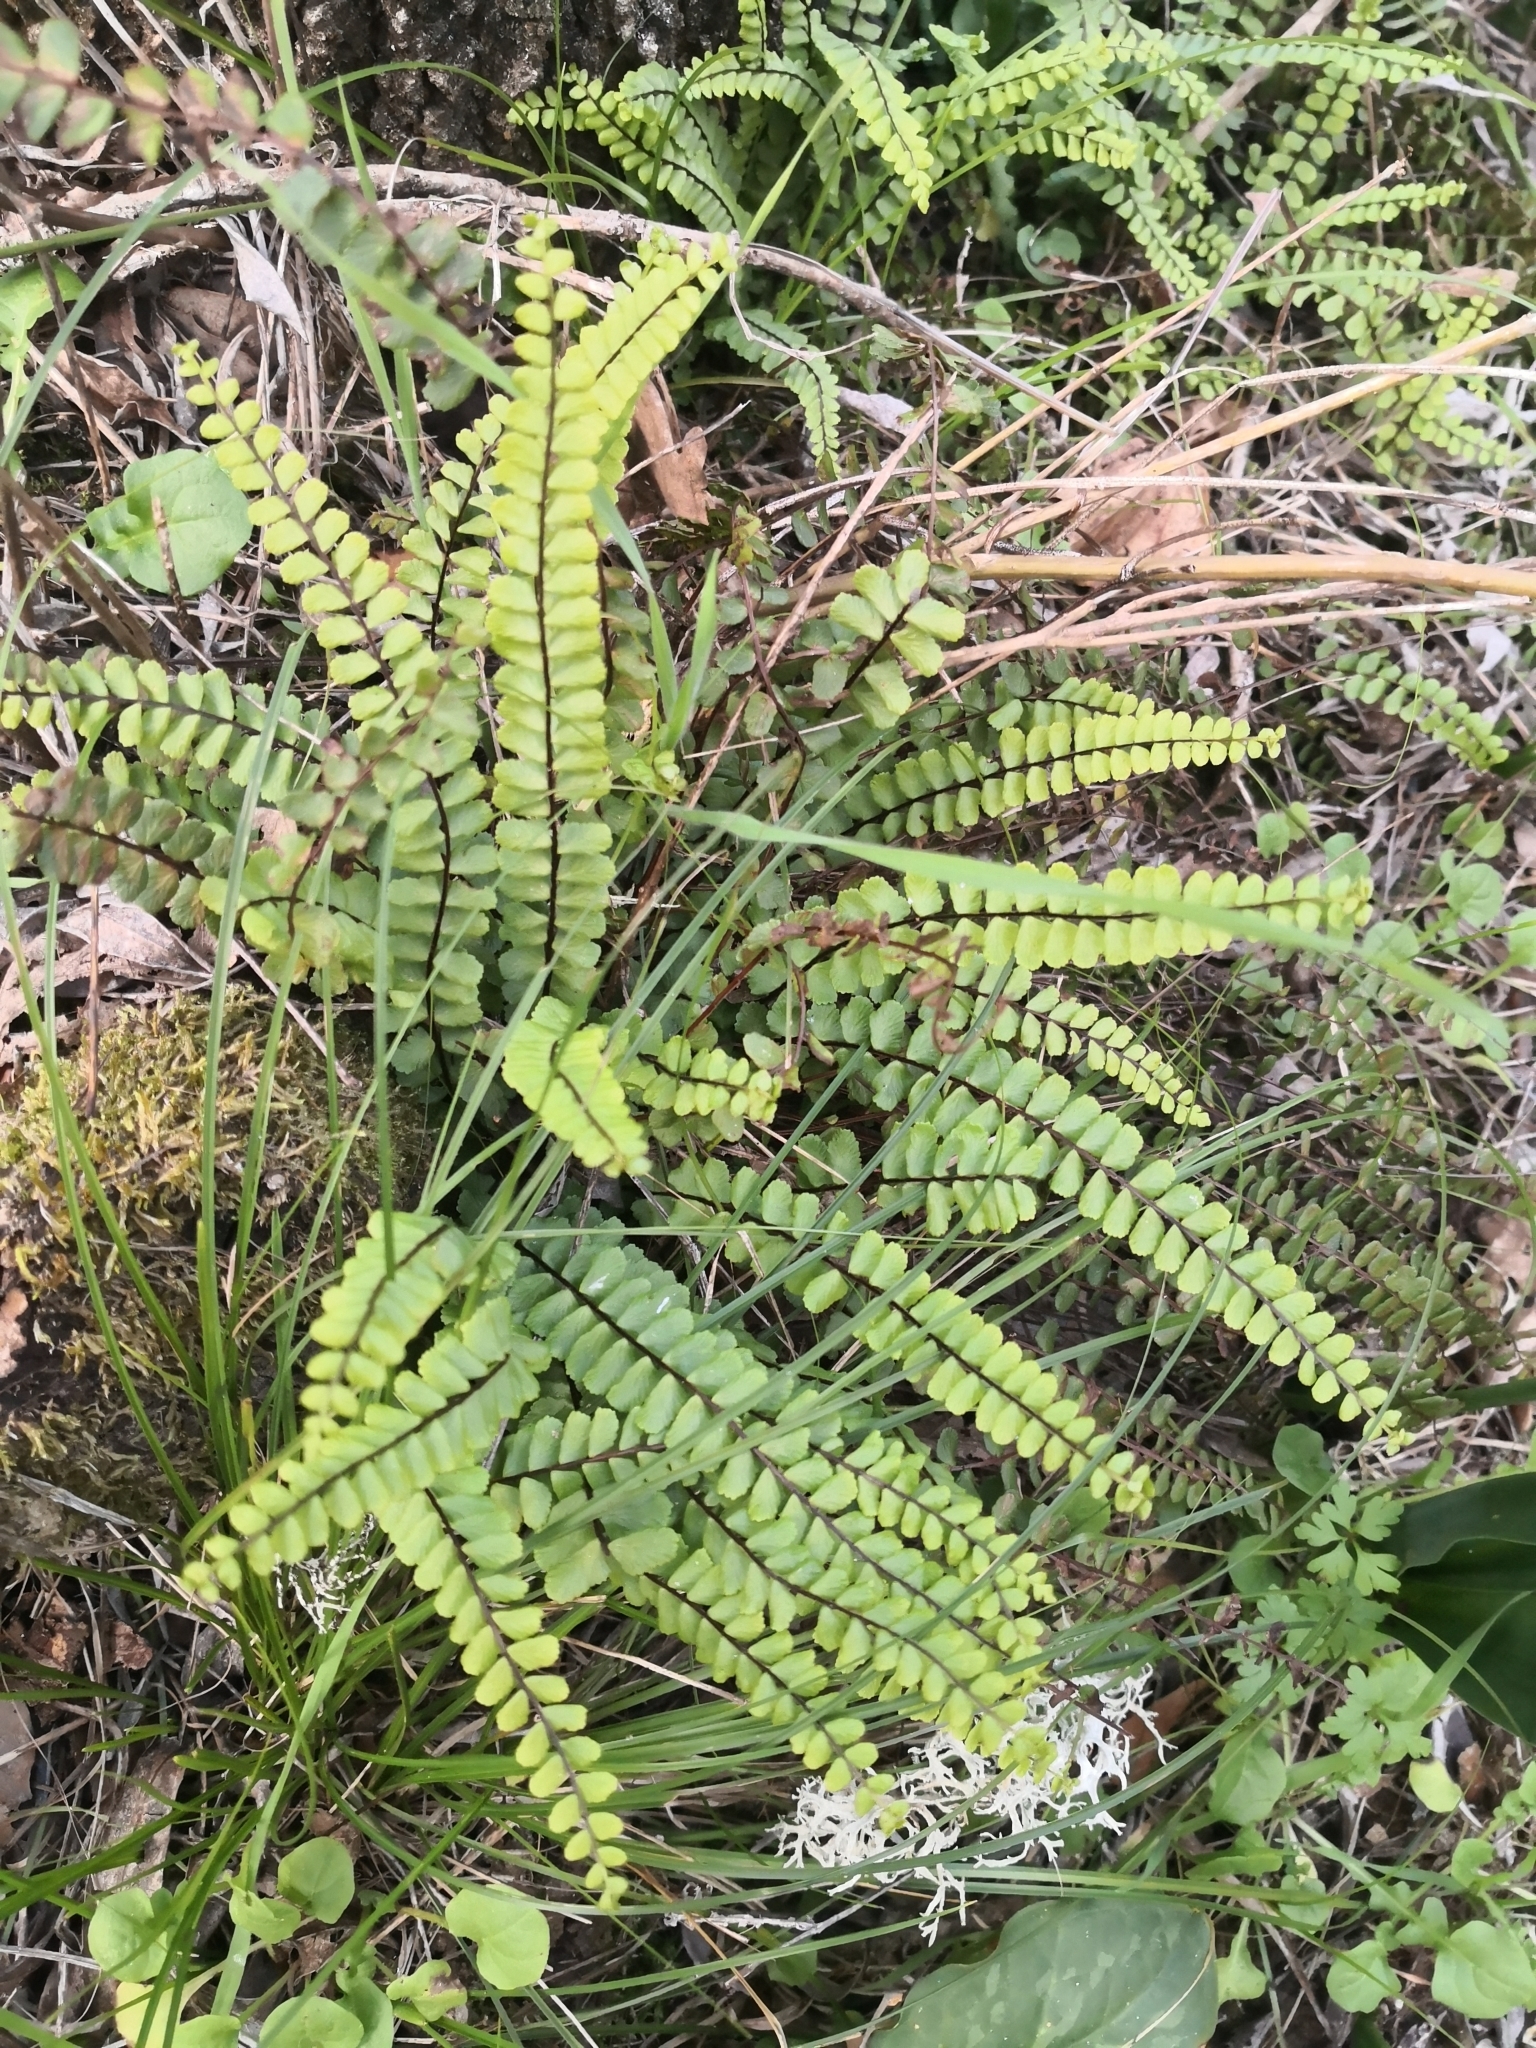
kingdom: Plantae
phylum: Tracheophyta
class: Polypodiopsida
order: Polypodiales
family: Aspleniaceae
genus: Asplenium
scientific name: Asplenium trichomanes
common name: Maidenhair spleenwort
